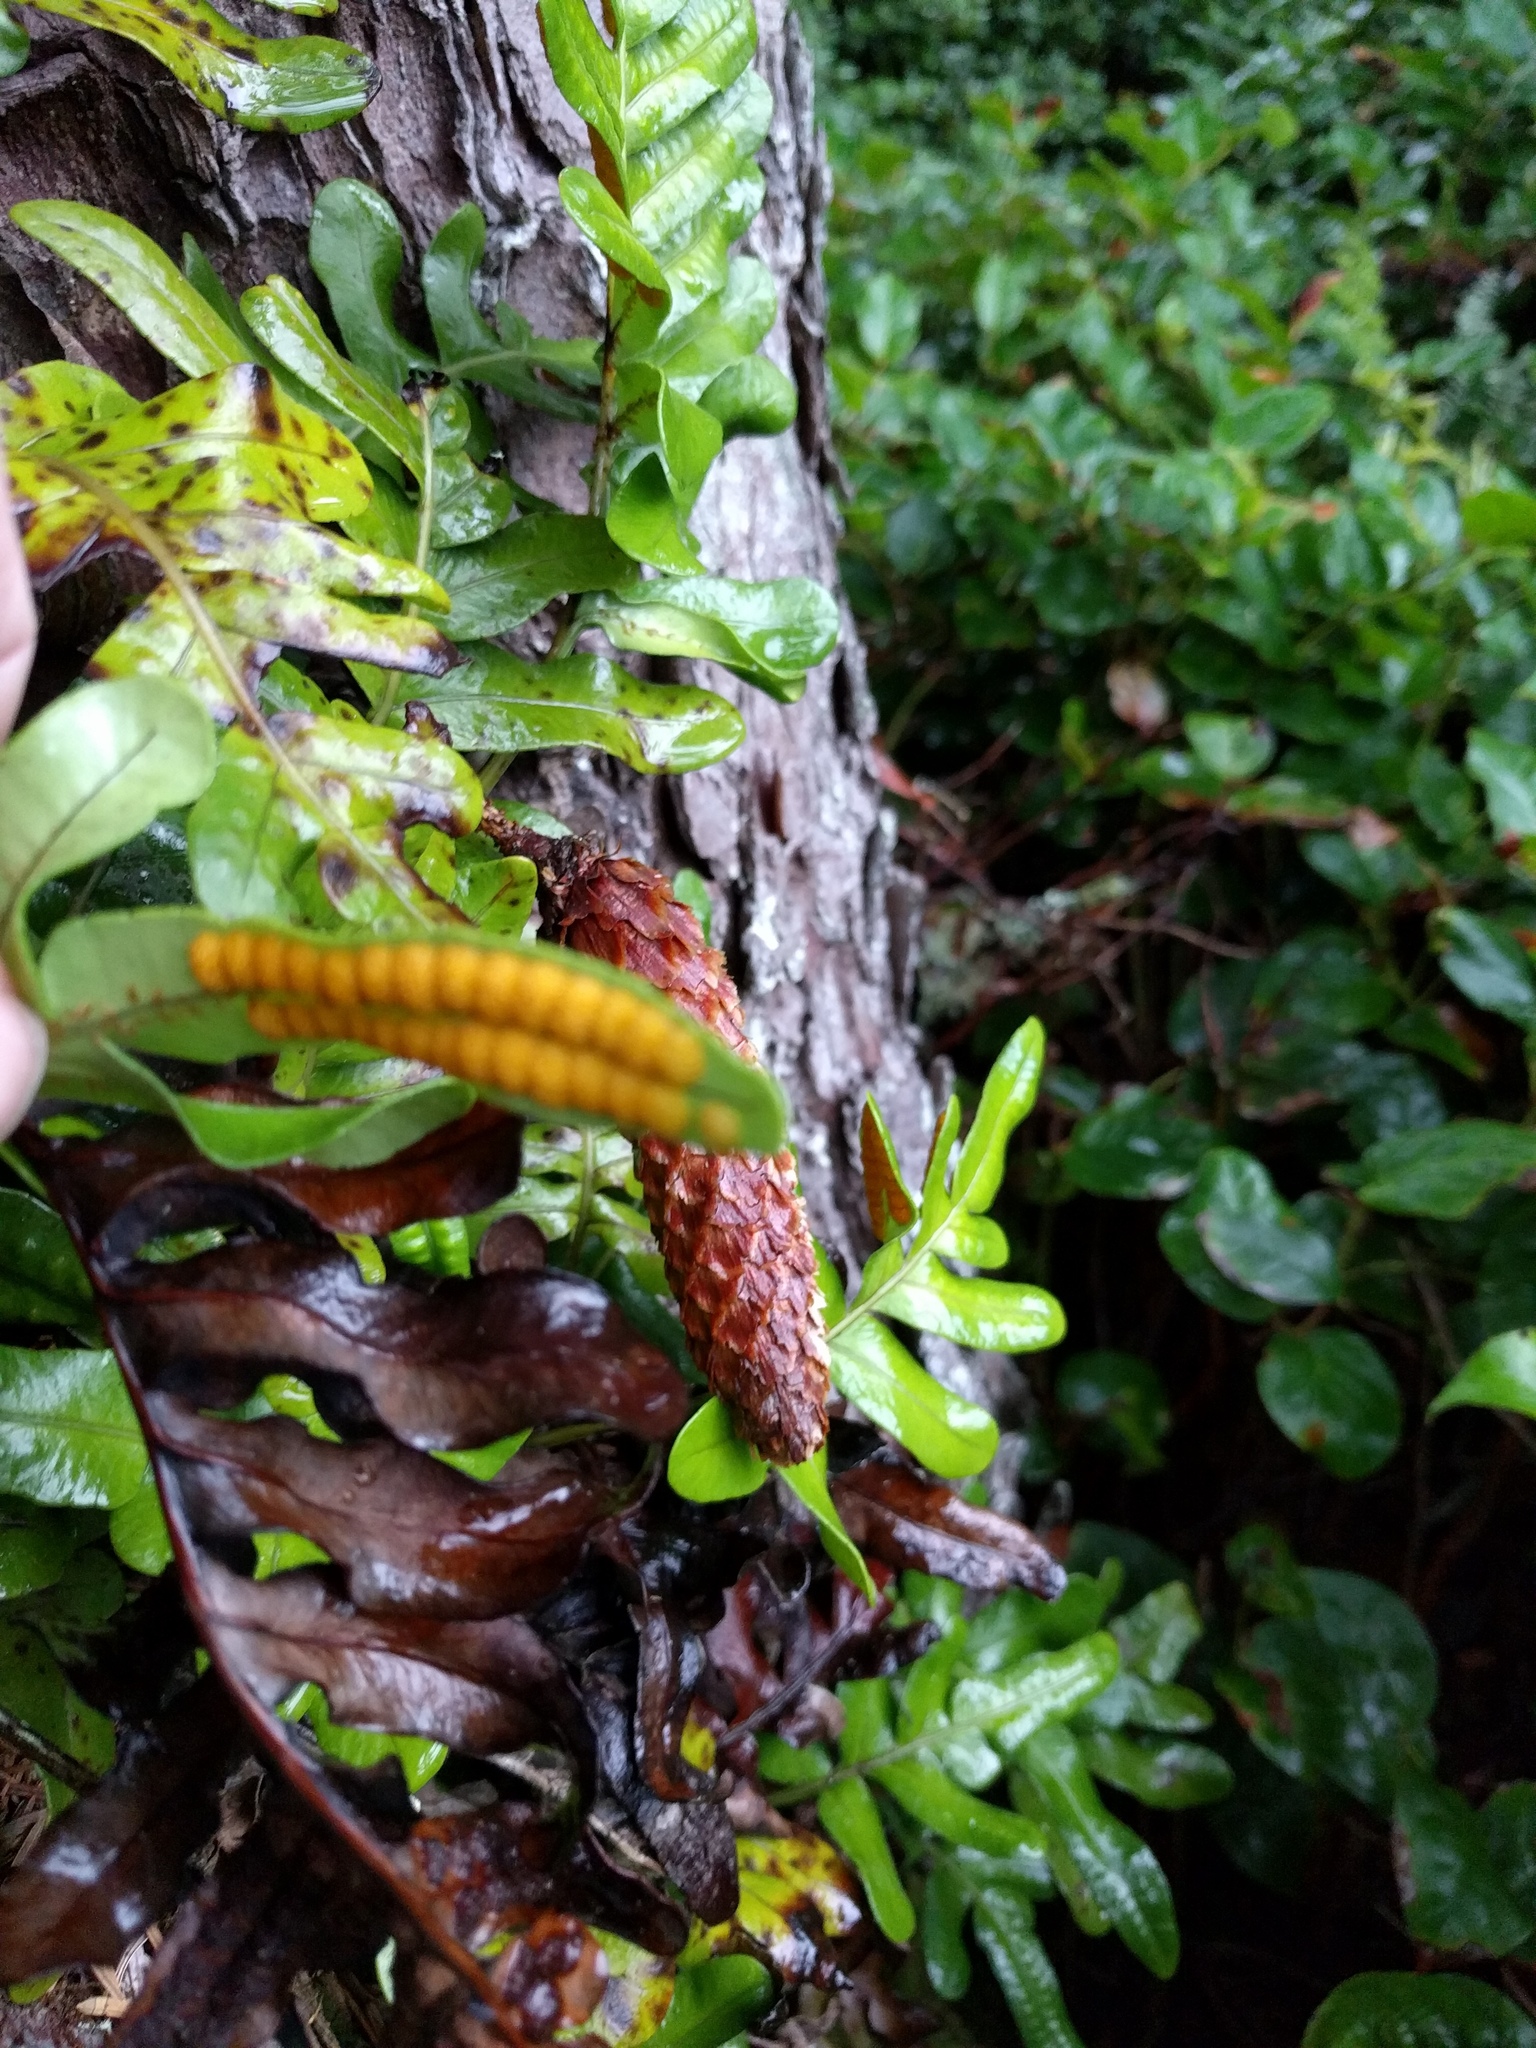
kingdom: Plantae
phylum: Tracheophyta
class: Polypodiopsida
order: Polypodiales
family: Polypodiaceae
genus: Polypodium
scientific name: Polypodium scouleri
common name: Scouler's polypody
